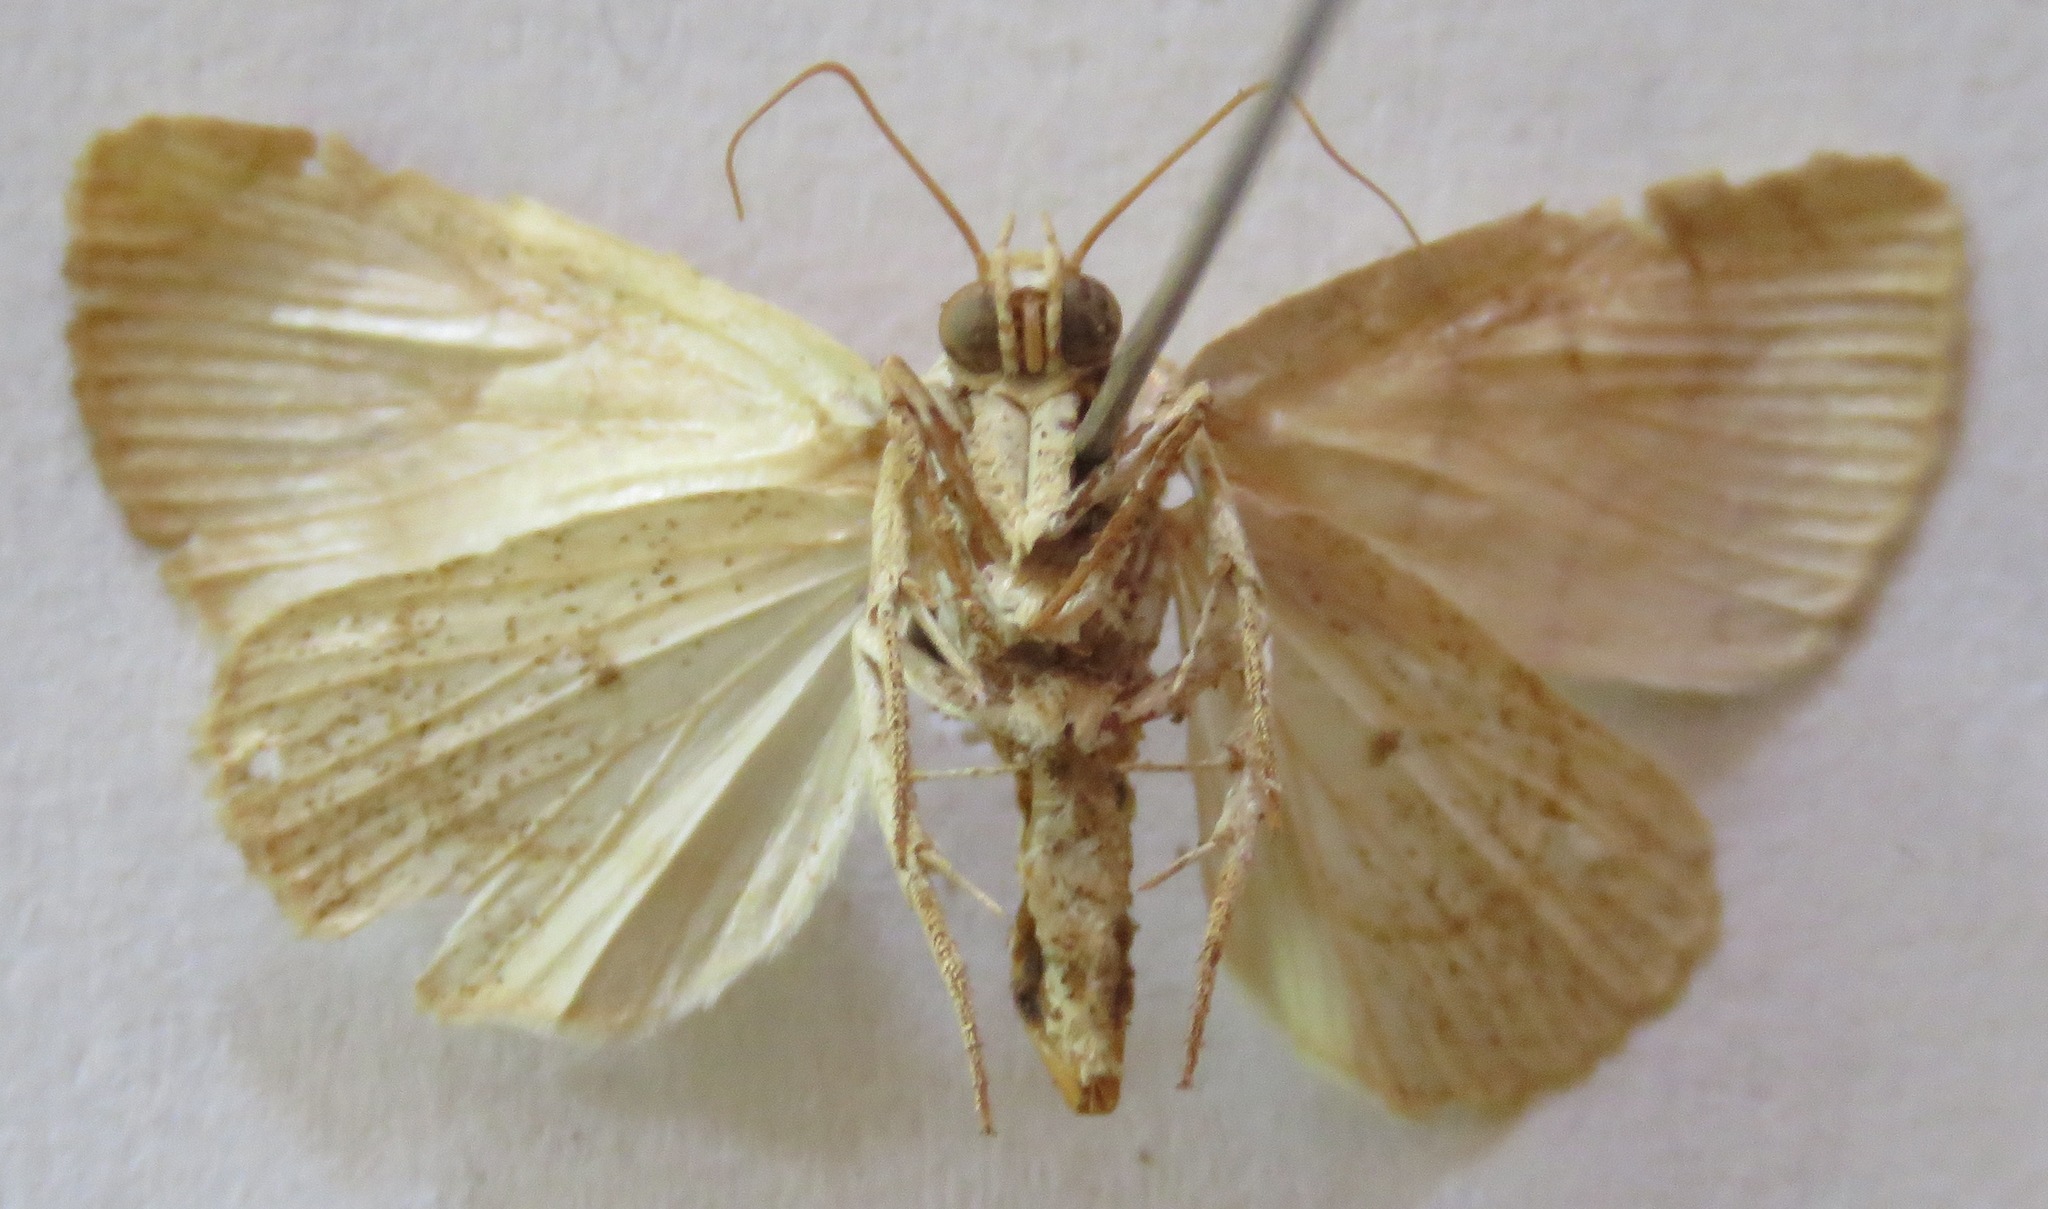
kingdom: Animalia
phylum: Arthropoda
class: Insecta
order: Lepidoptera
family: Noctuidae
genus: Bagisara
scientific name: Bagisara tristicta
